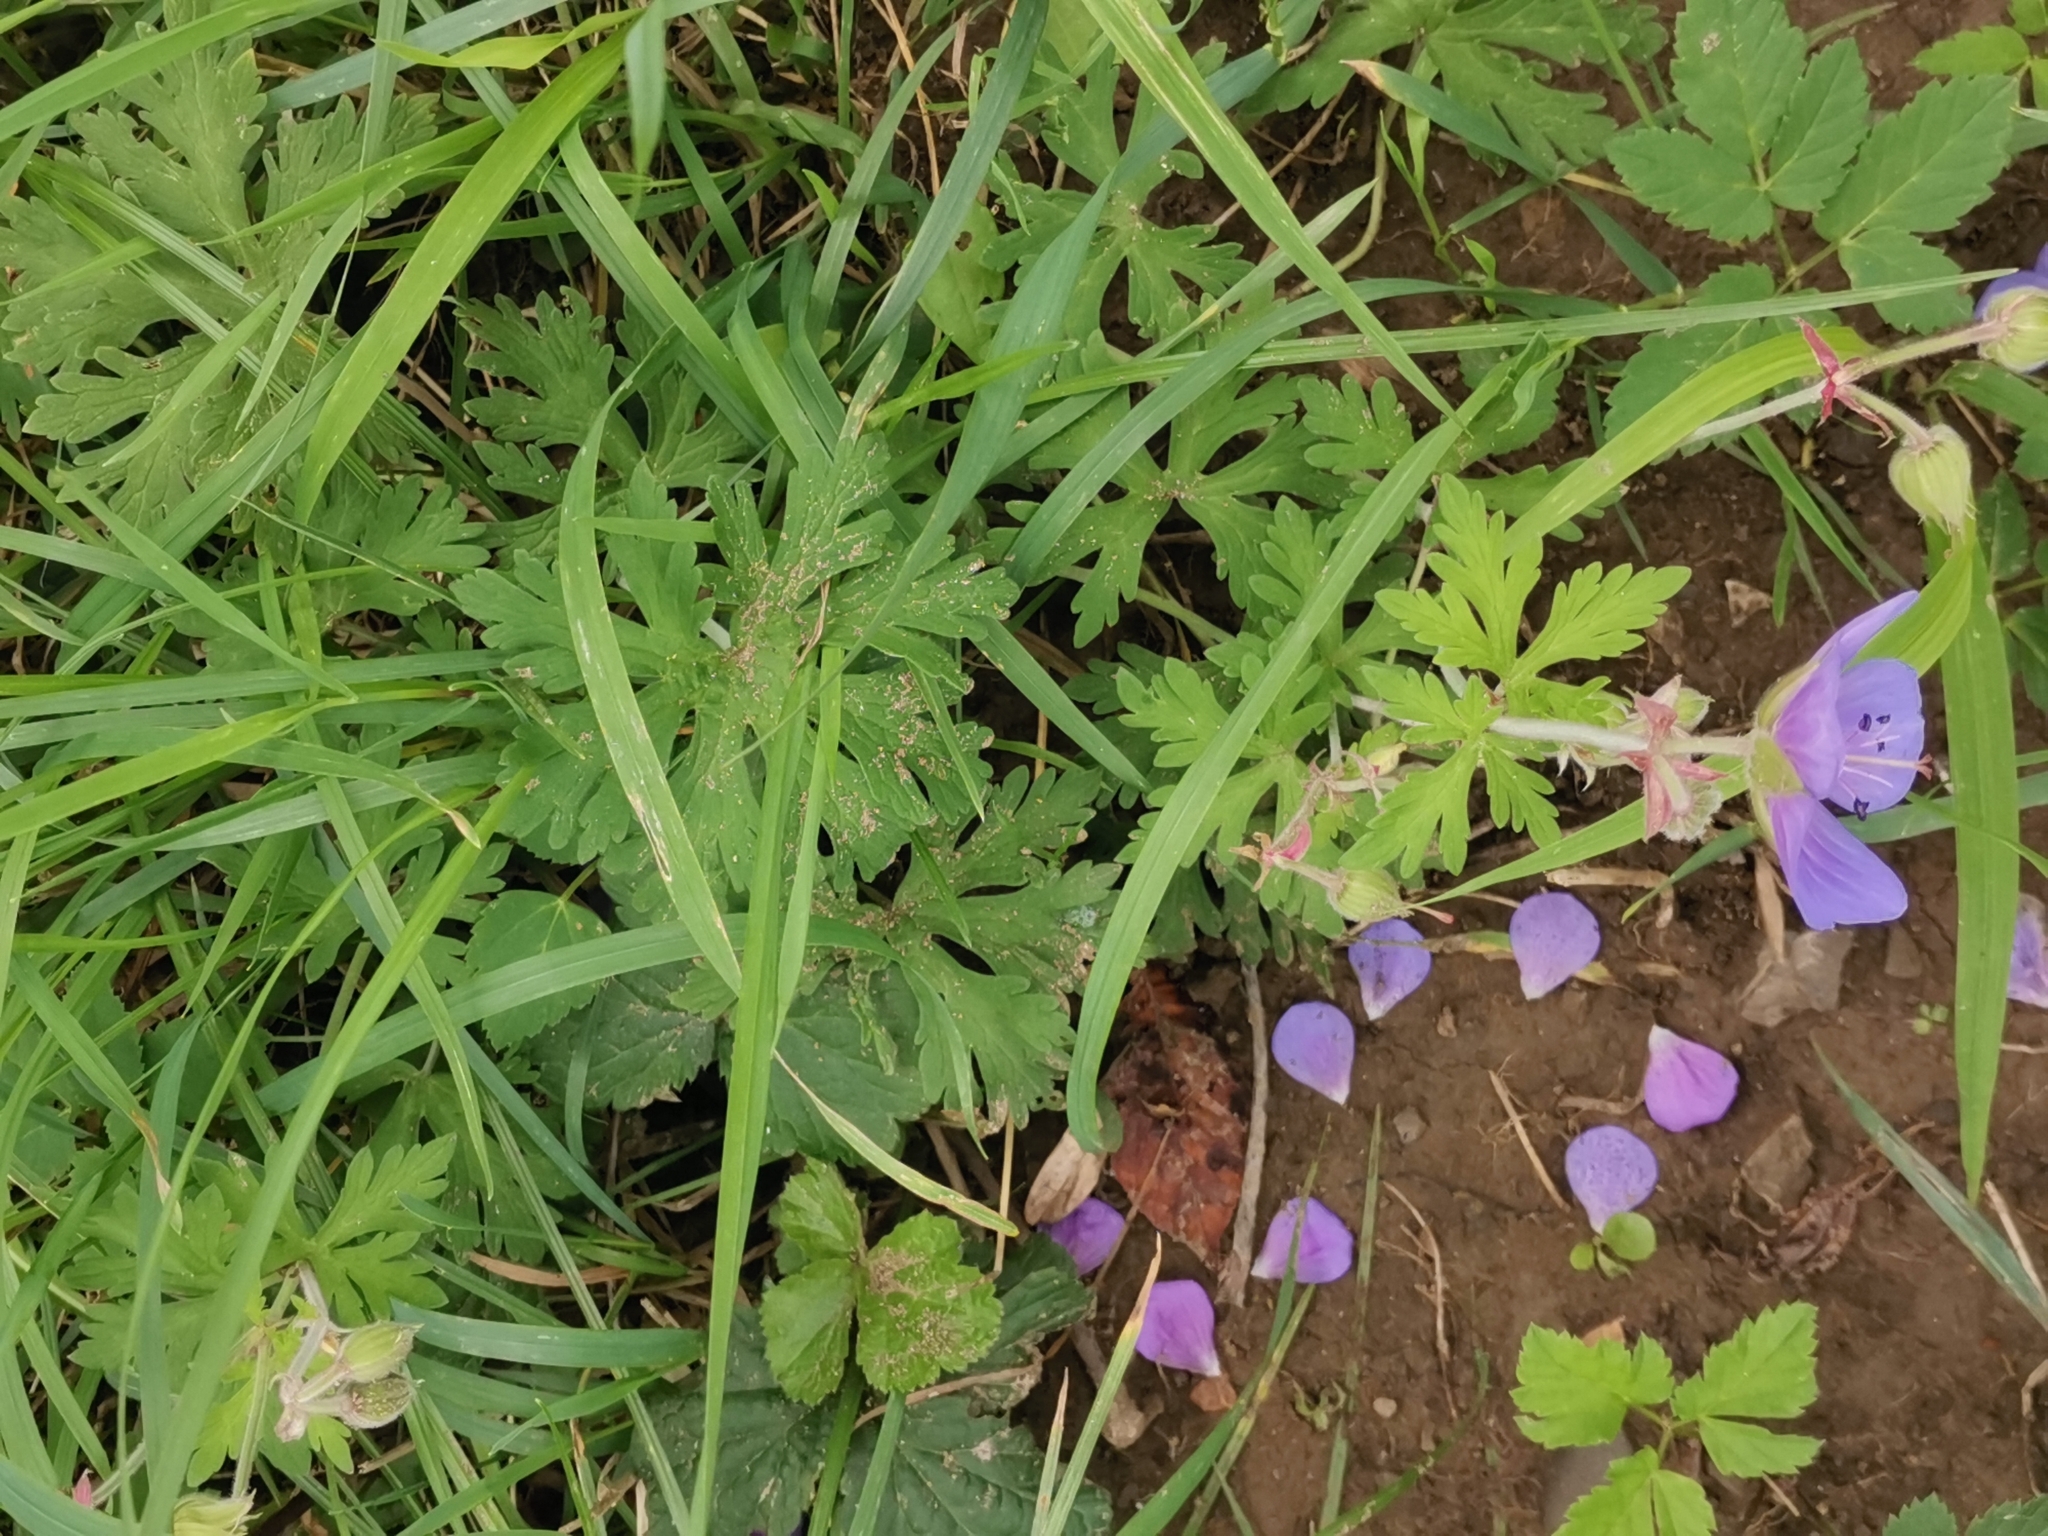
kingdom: Plantae
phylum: Tracheophyta
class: Magnoliopsida
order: Geraniales
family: Geraniaceae
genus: Geranium
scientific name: Geranium pratense
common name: Meadow crane's-bill
